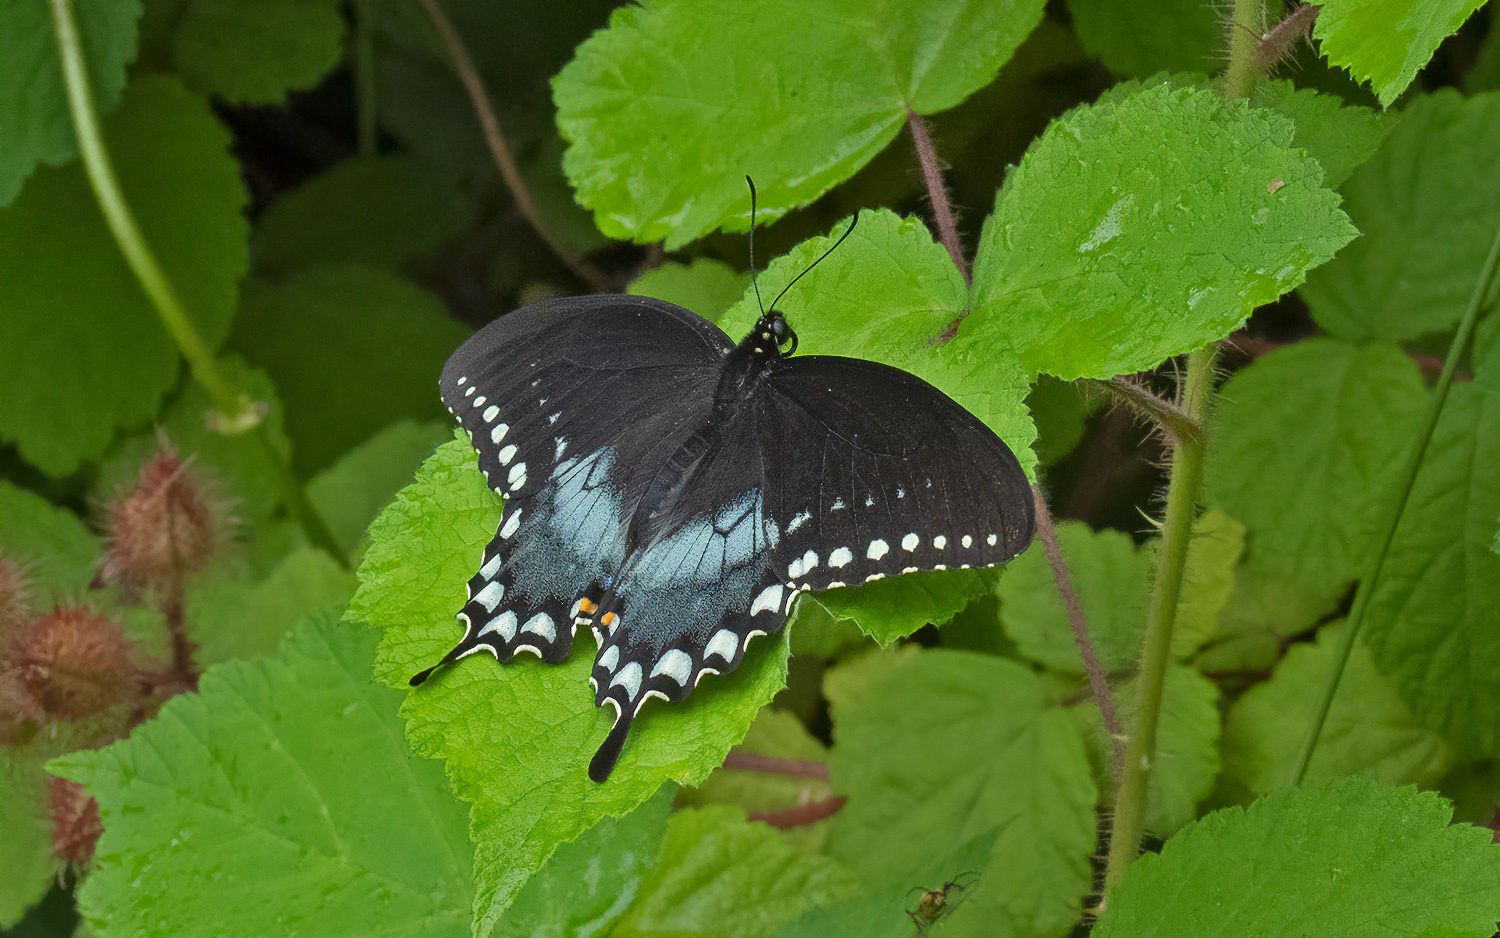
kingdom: Animalia
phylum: Arthropoda
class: Insecta
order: Lepidoptera
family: Papilionidae
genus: Papilio
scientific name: Papilio troilus
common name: Spicebush swallowtail
